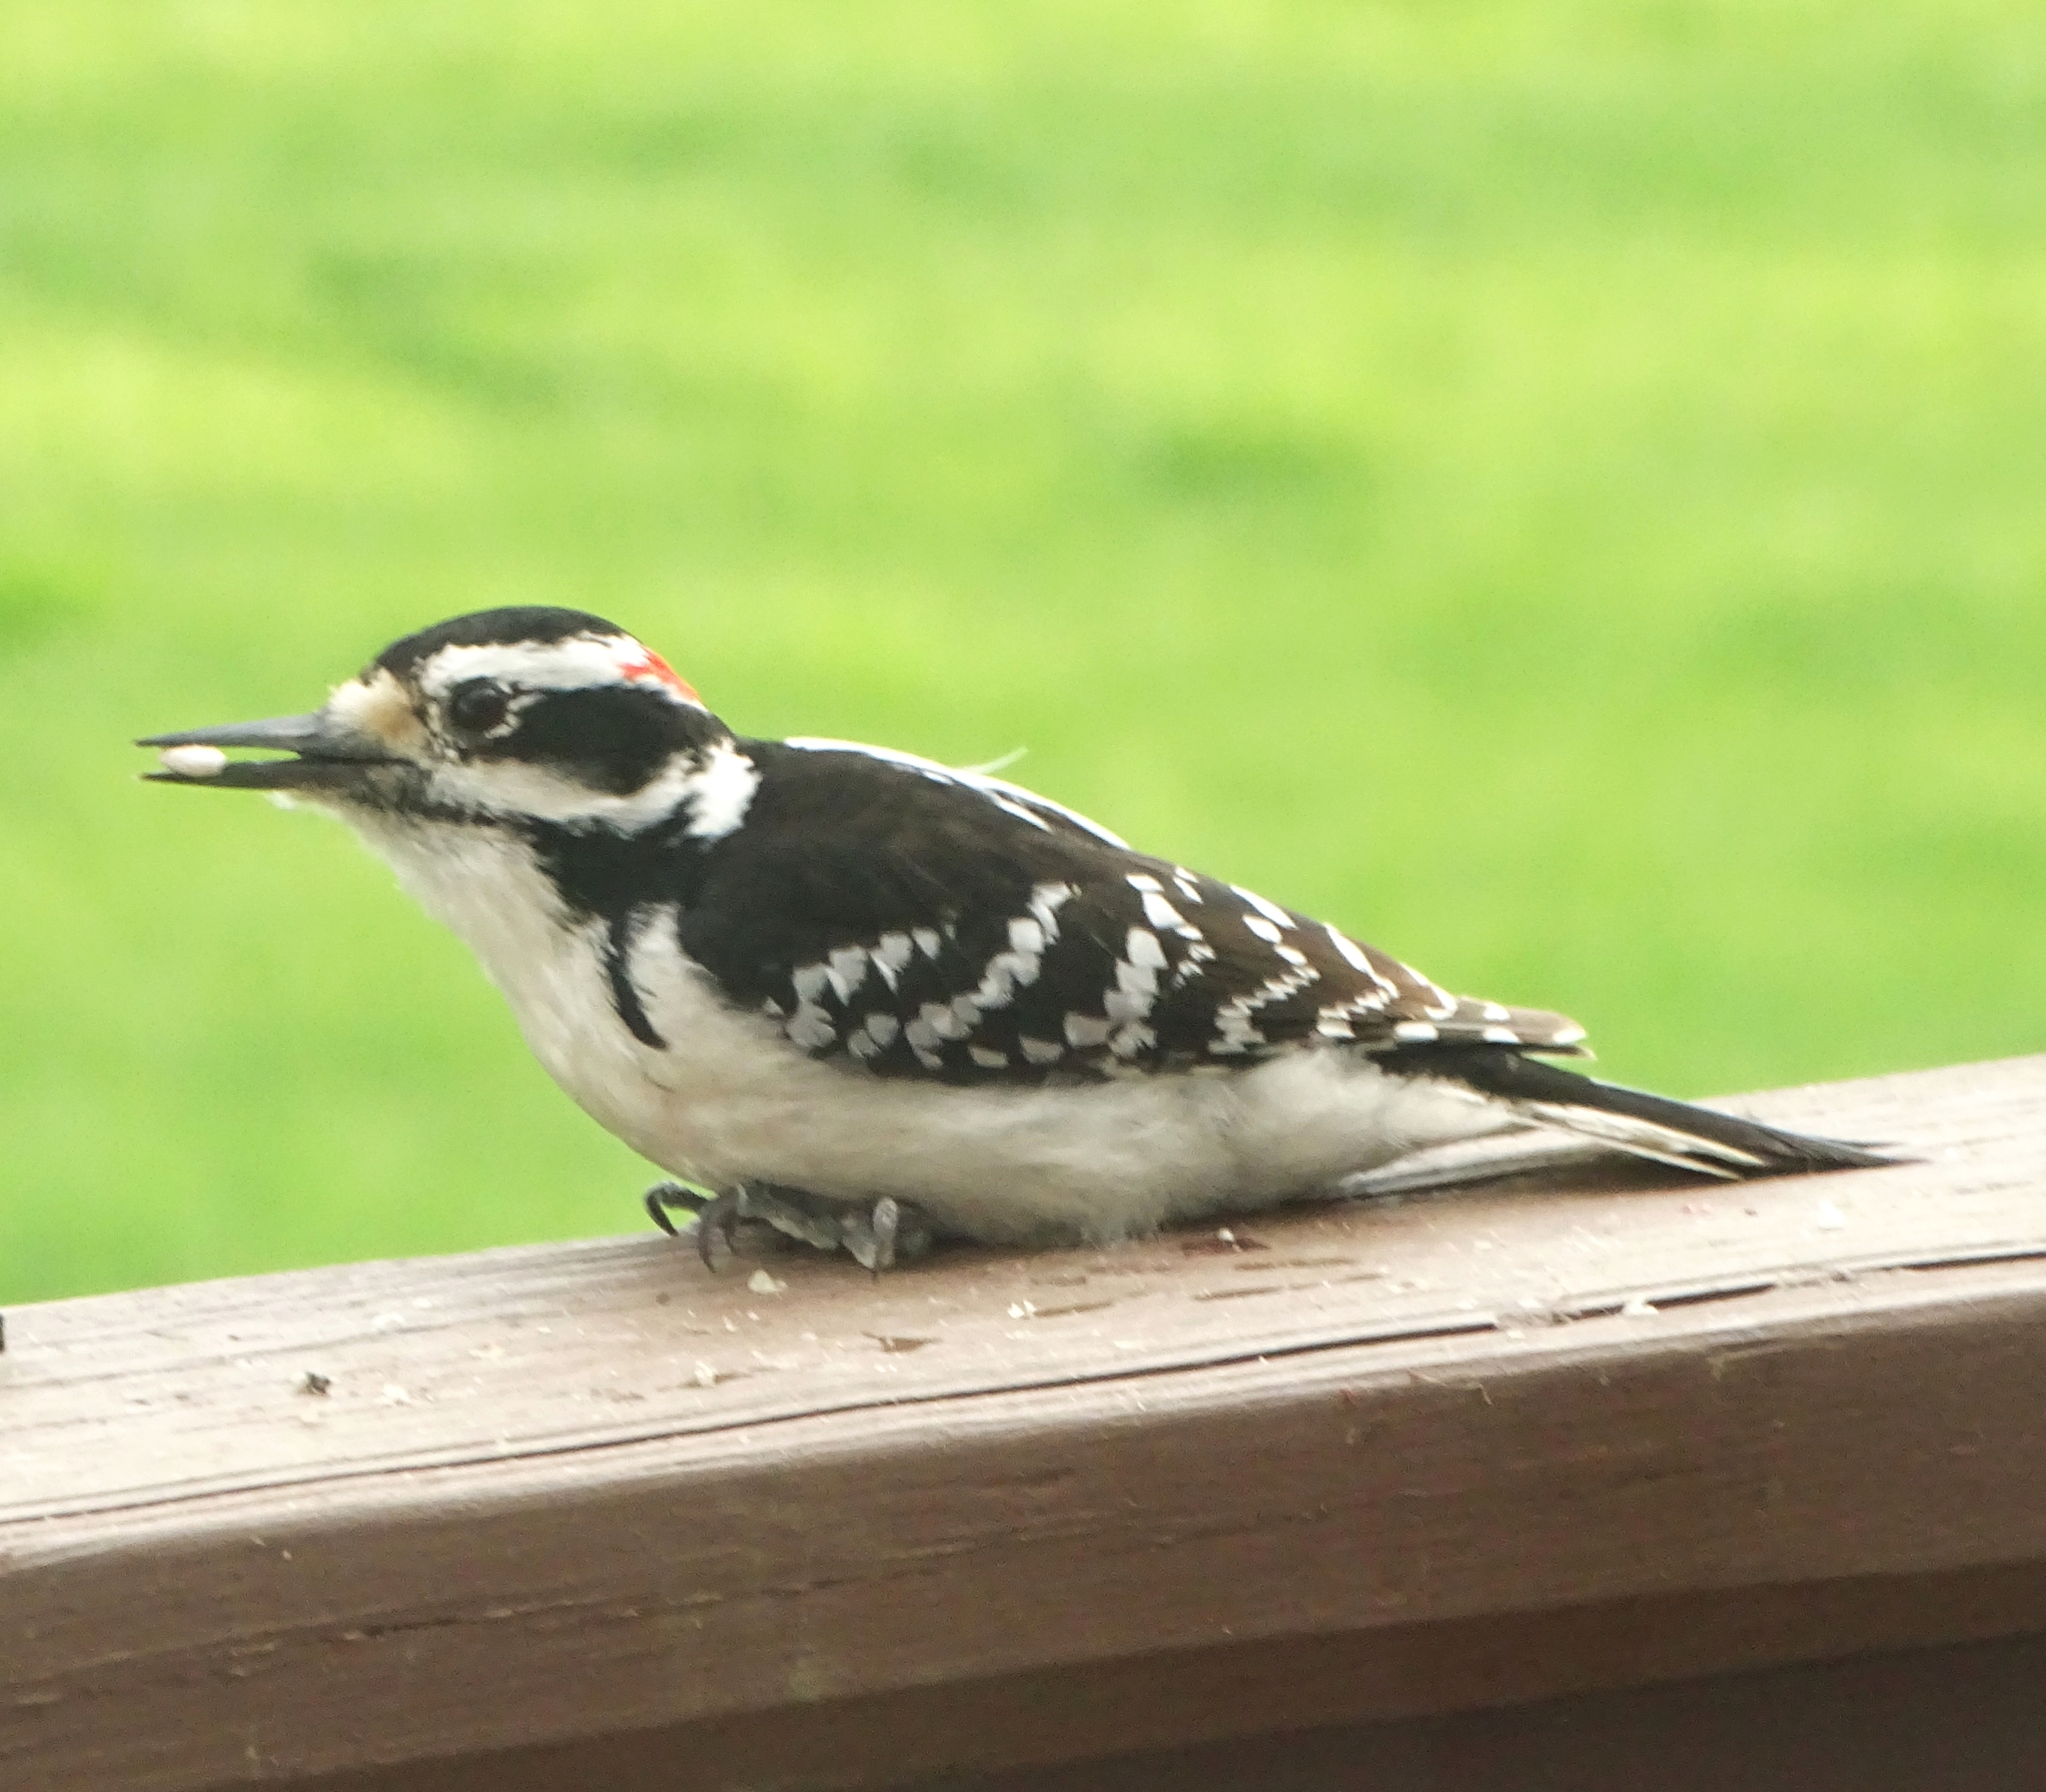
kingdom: Animalia
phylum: Chordata
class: Aves
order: Piciformes
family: Picidae
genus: Leuconotopicus
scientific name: Leuconotopicus villosus
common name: Hairy woodpecker
